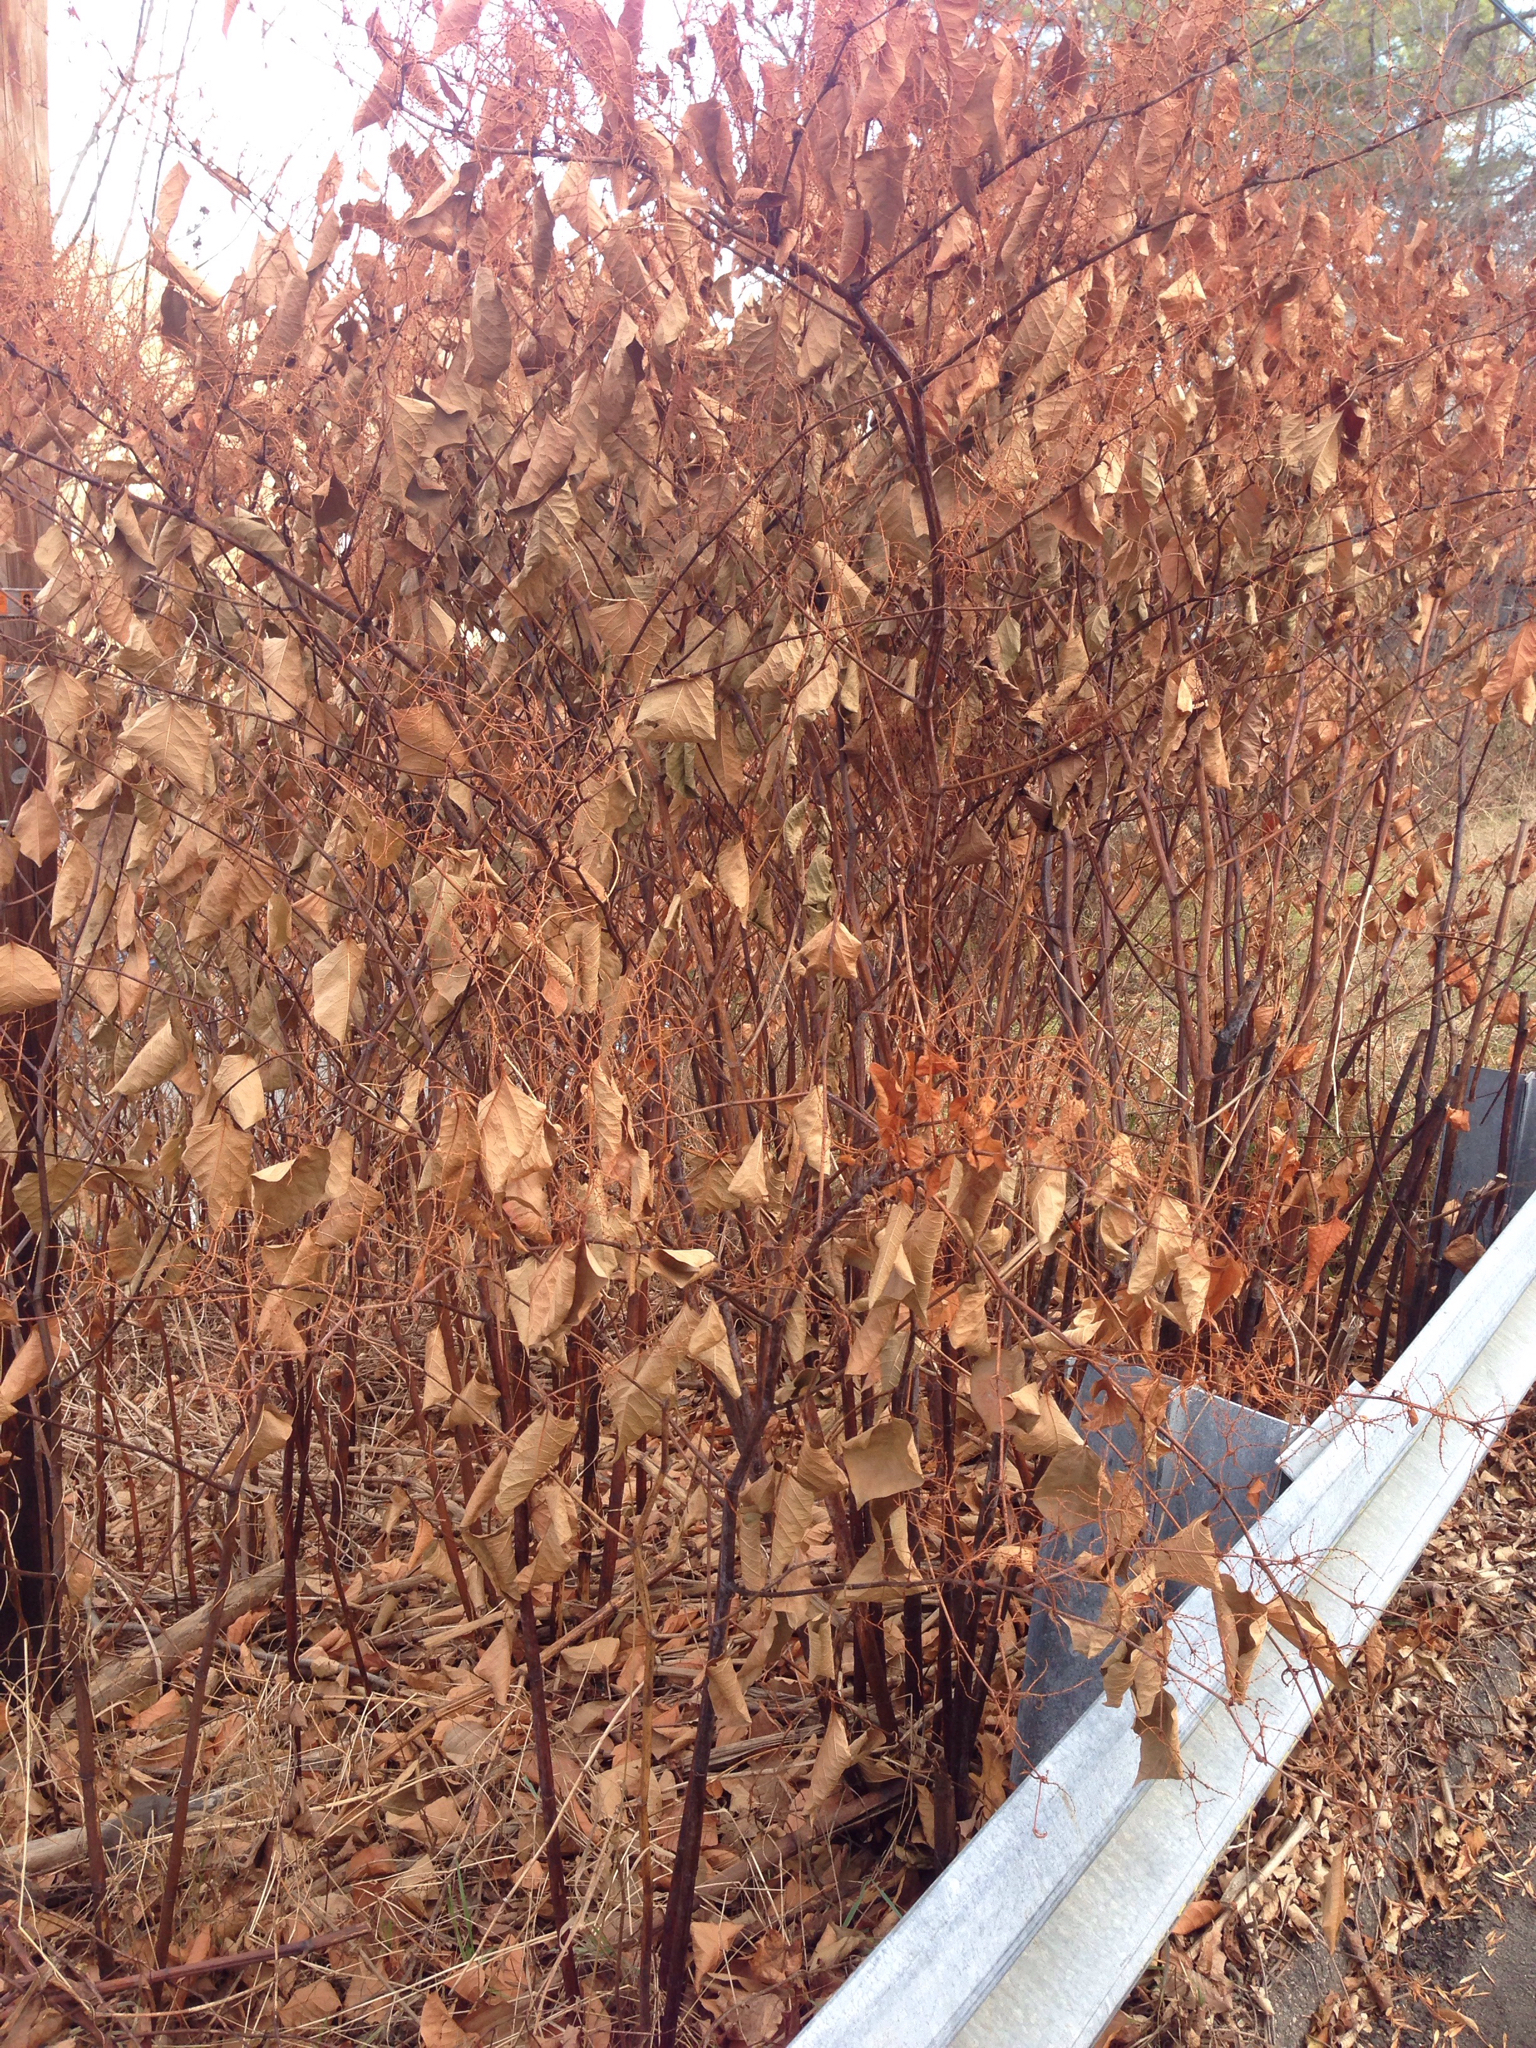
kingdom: Plantae
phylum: Tracheophyta
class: Magnoliopsida
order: Caryophyllales
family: Polygonaceae
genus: Reynoutria
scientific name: Reynoutria japonica
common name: Japanese knotweed
